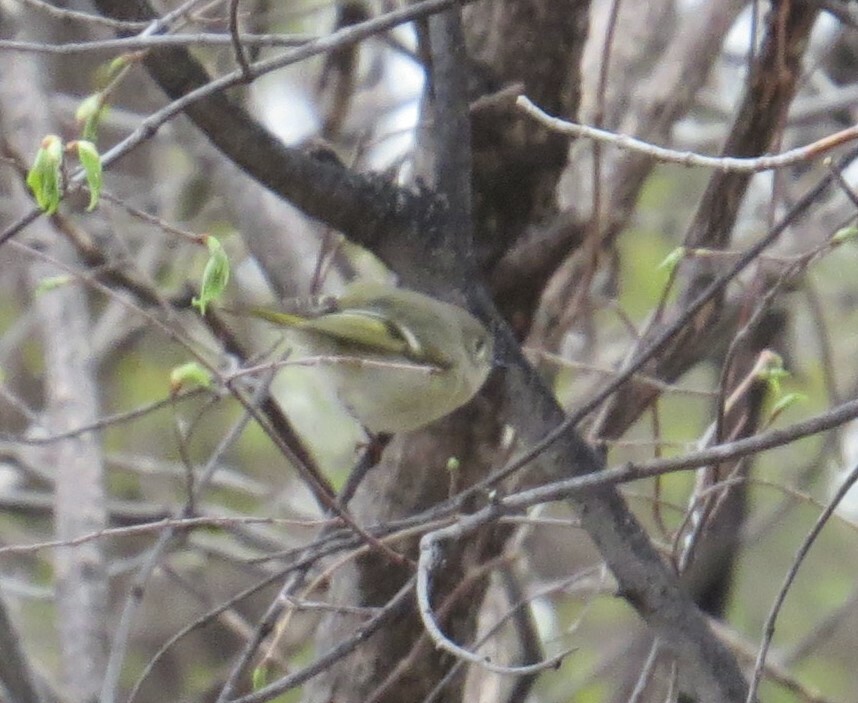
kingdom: Animalia
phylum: Chordata
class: Aves
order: Passeriformes
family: Regulidae
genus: Regulus
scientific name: Regulus calendula
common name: Ruby-crowned kinglet
